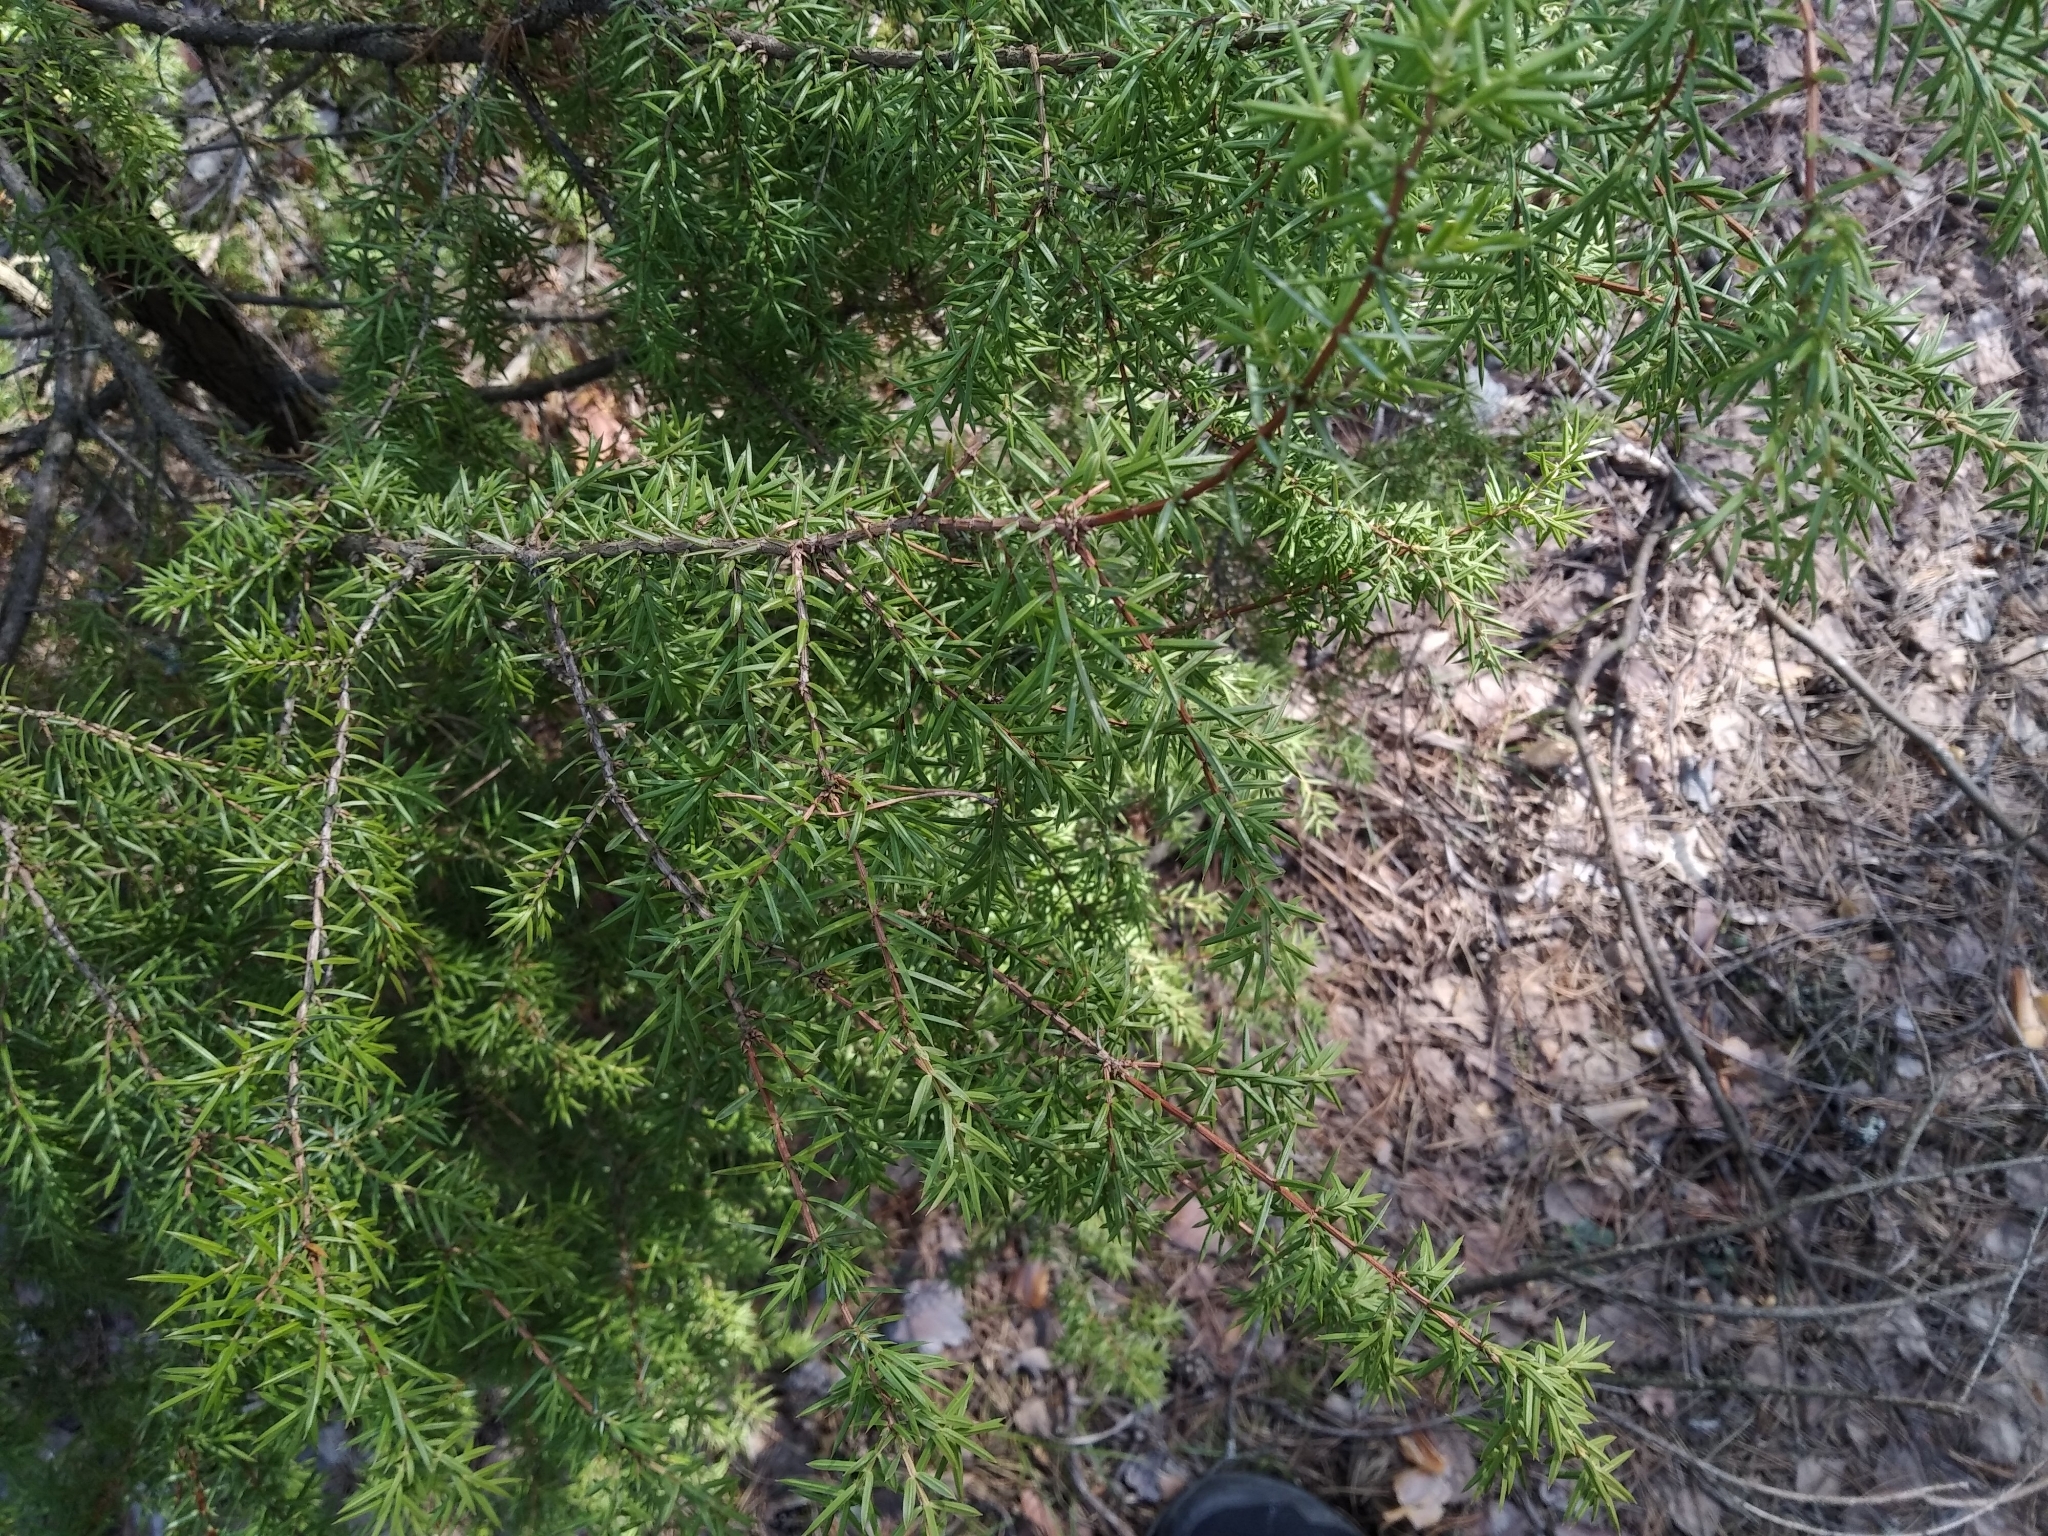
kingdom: Plantae
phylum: Tracheophyta
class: Pinopsida
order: Pinales
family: Cupressaceae
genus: Juniperus
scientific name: Juniperus communis
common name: Common juniper
